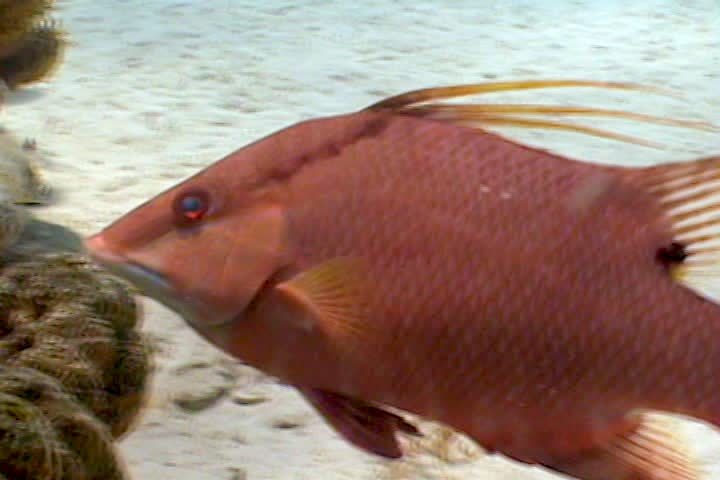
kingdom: Animalia
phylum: Chordata
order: Perciformes
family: Labridae
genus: Lachnolaimus
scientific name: Lachnolaimus maximus
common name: Hogfish
